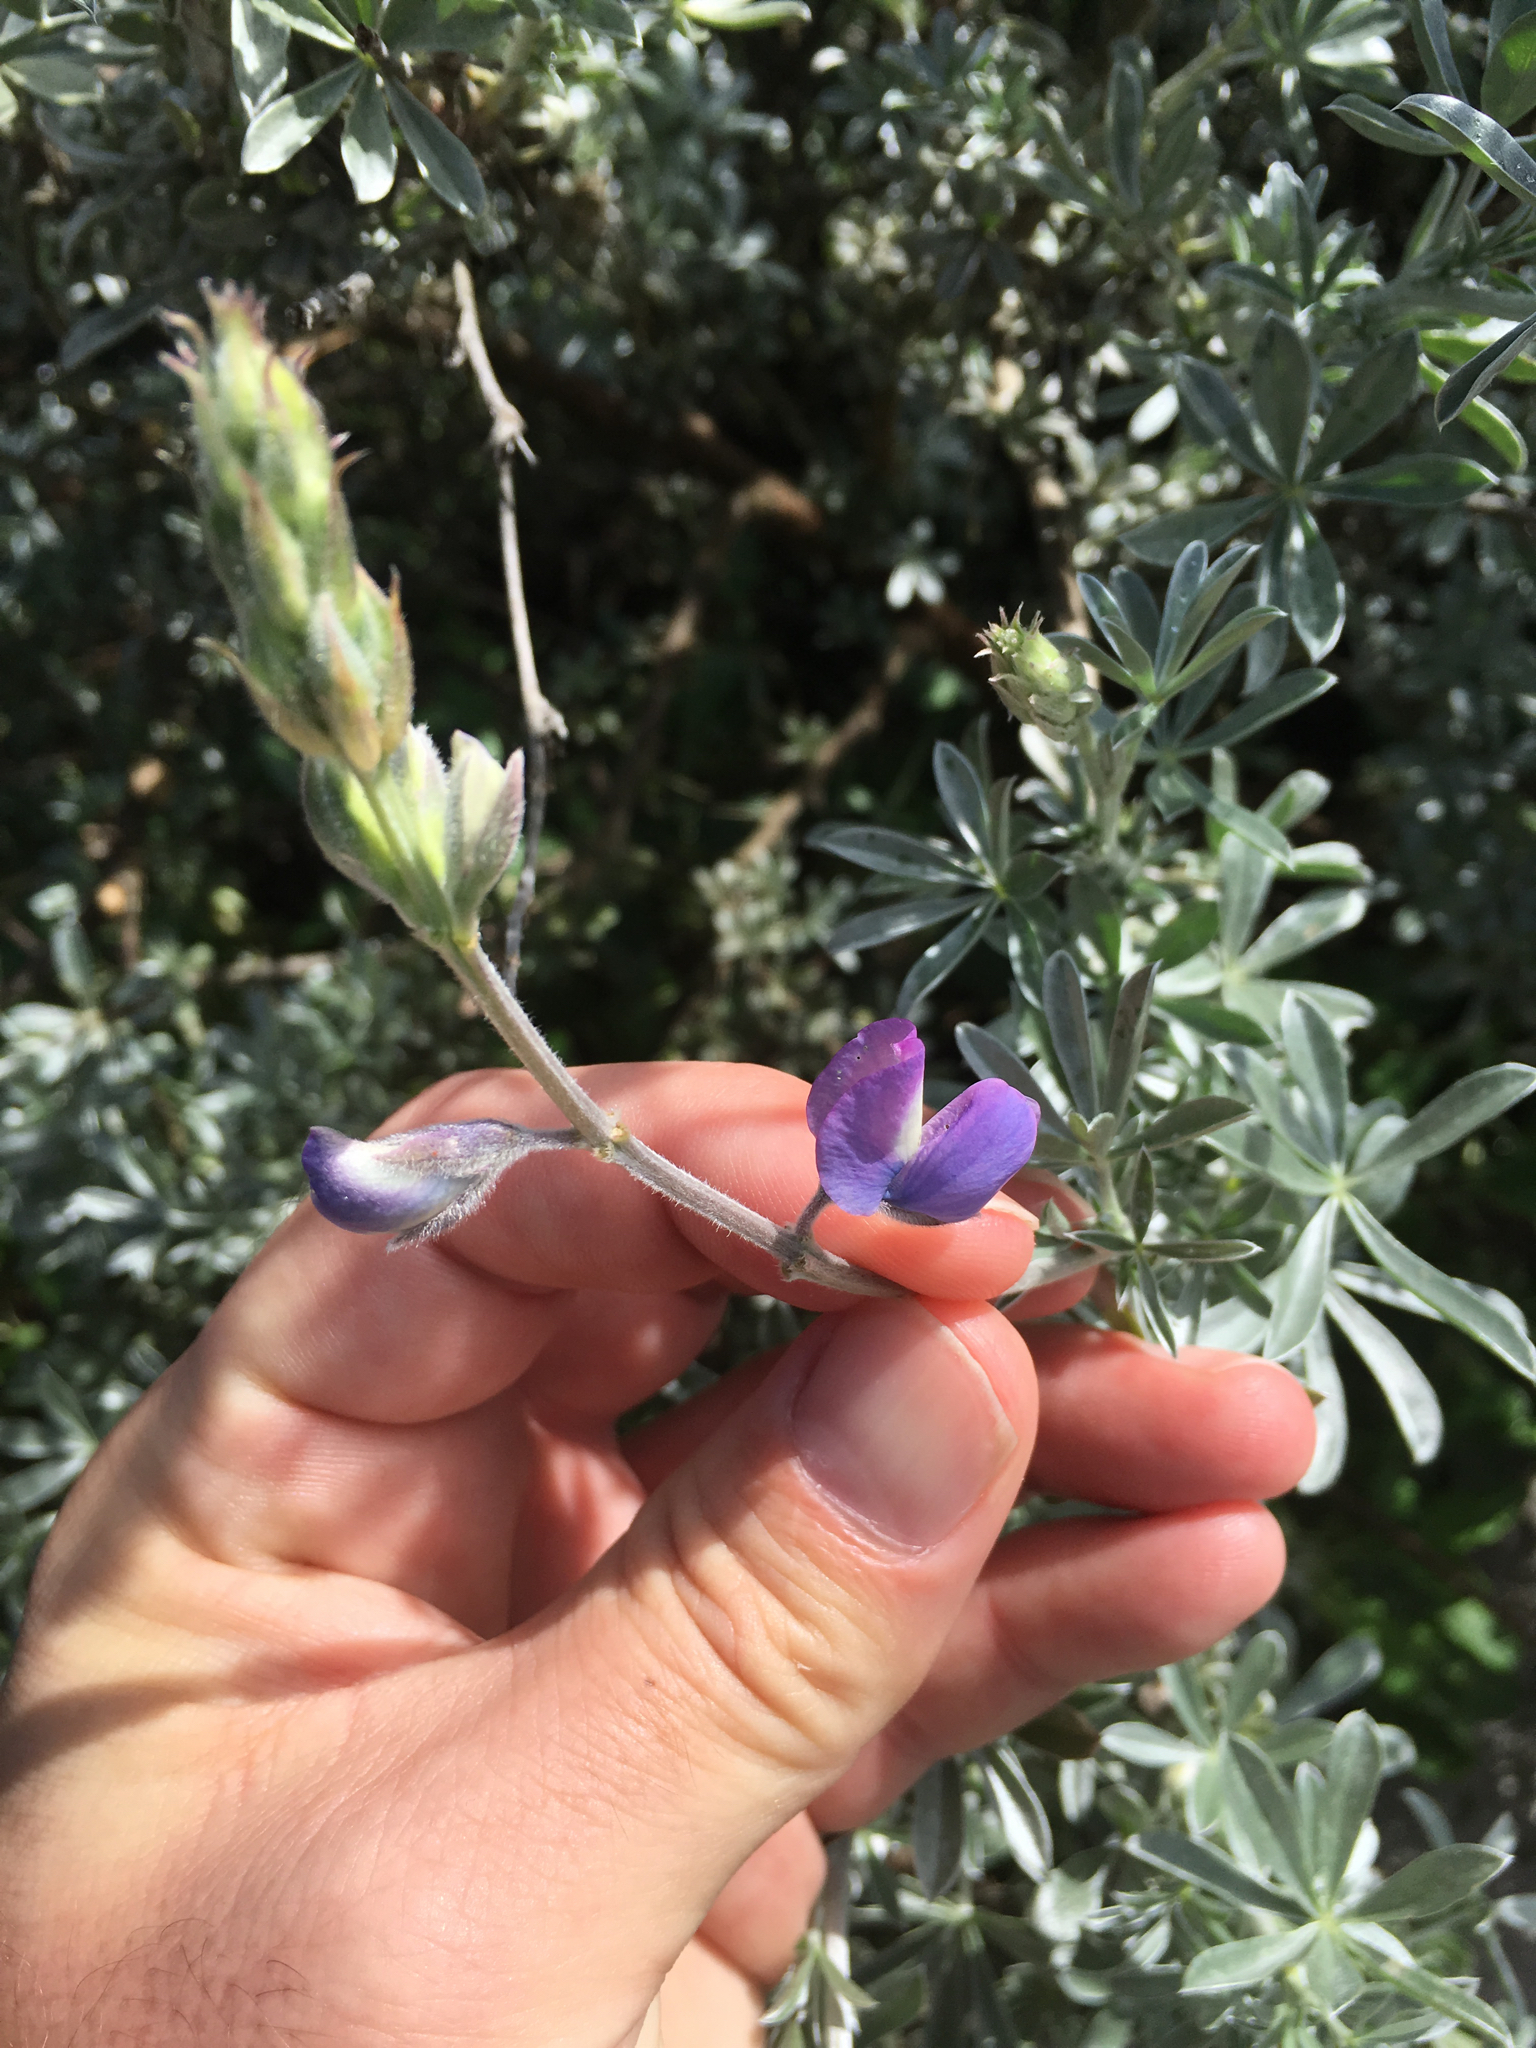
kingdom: Plantae
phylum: Tracheophyta
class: Magnoliopsida
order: Fabales
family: Fabaceae
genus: Lupinus
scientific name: Lupinus chamissonis
